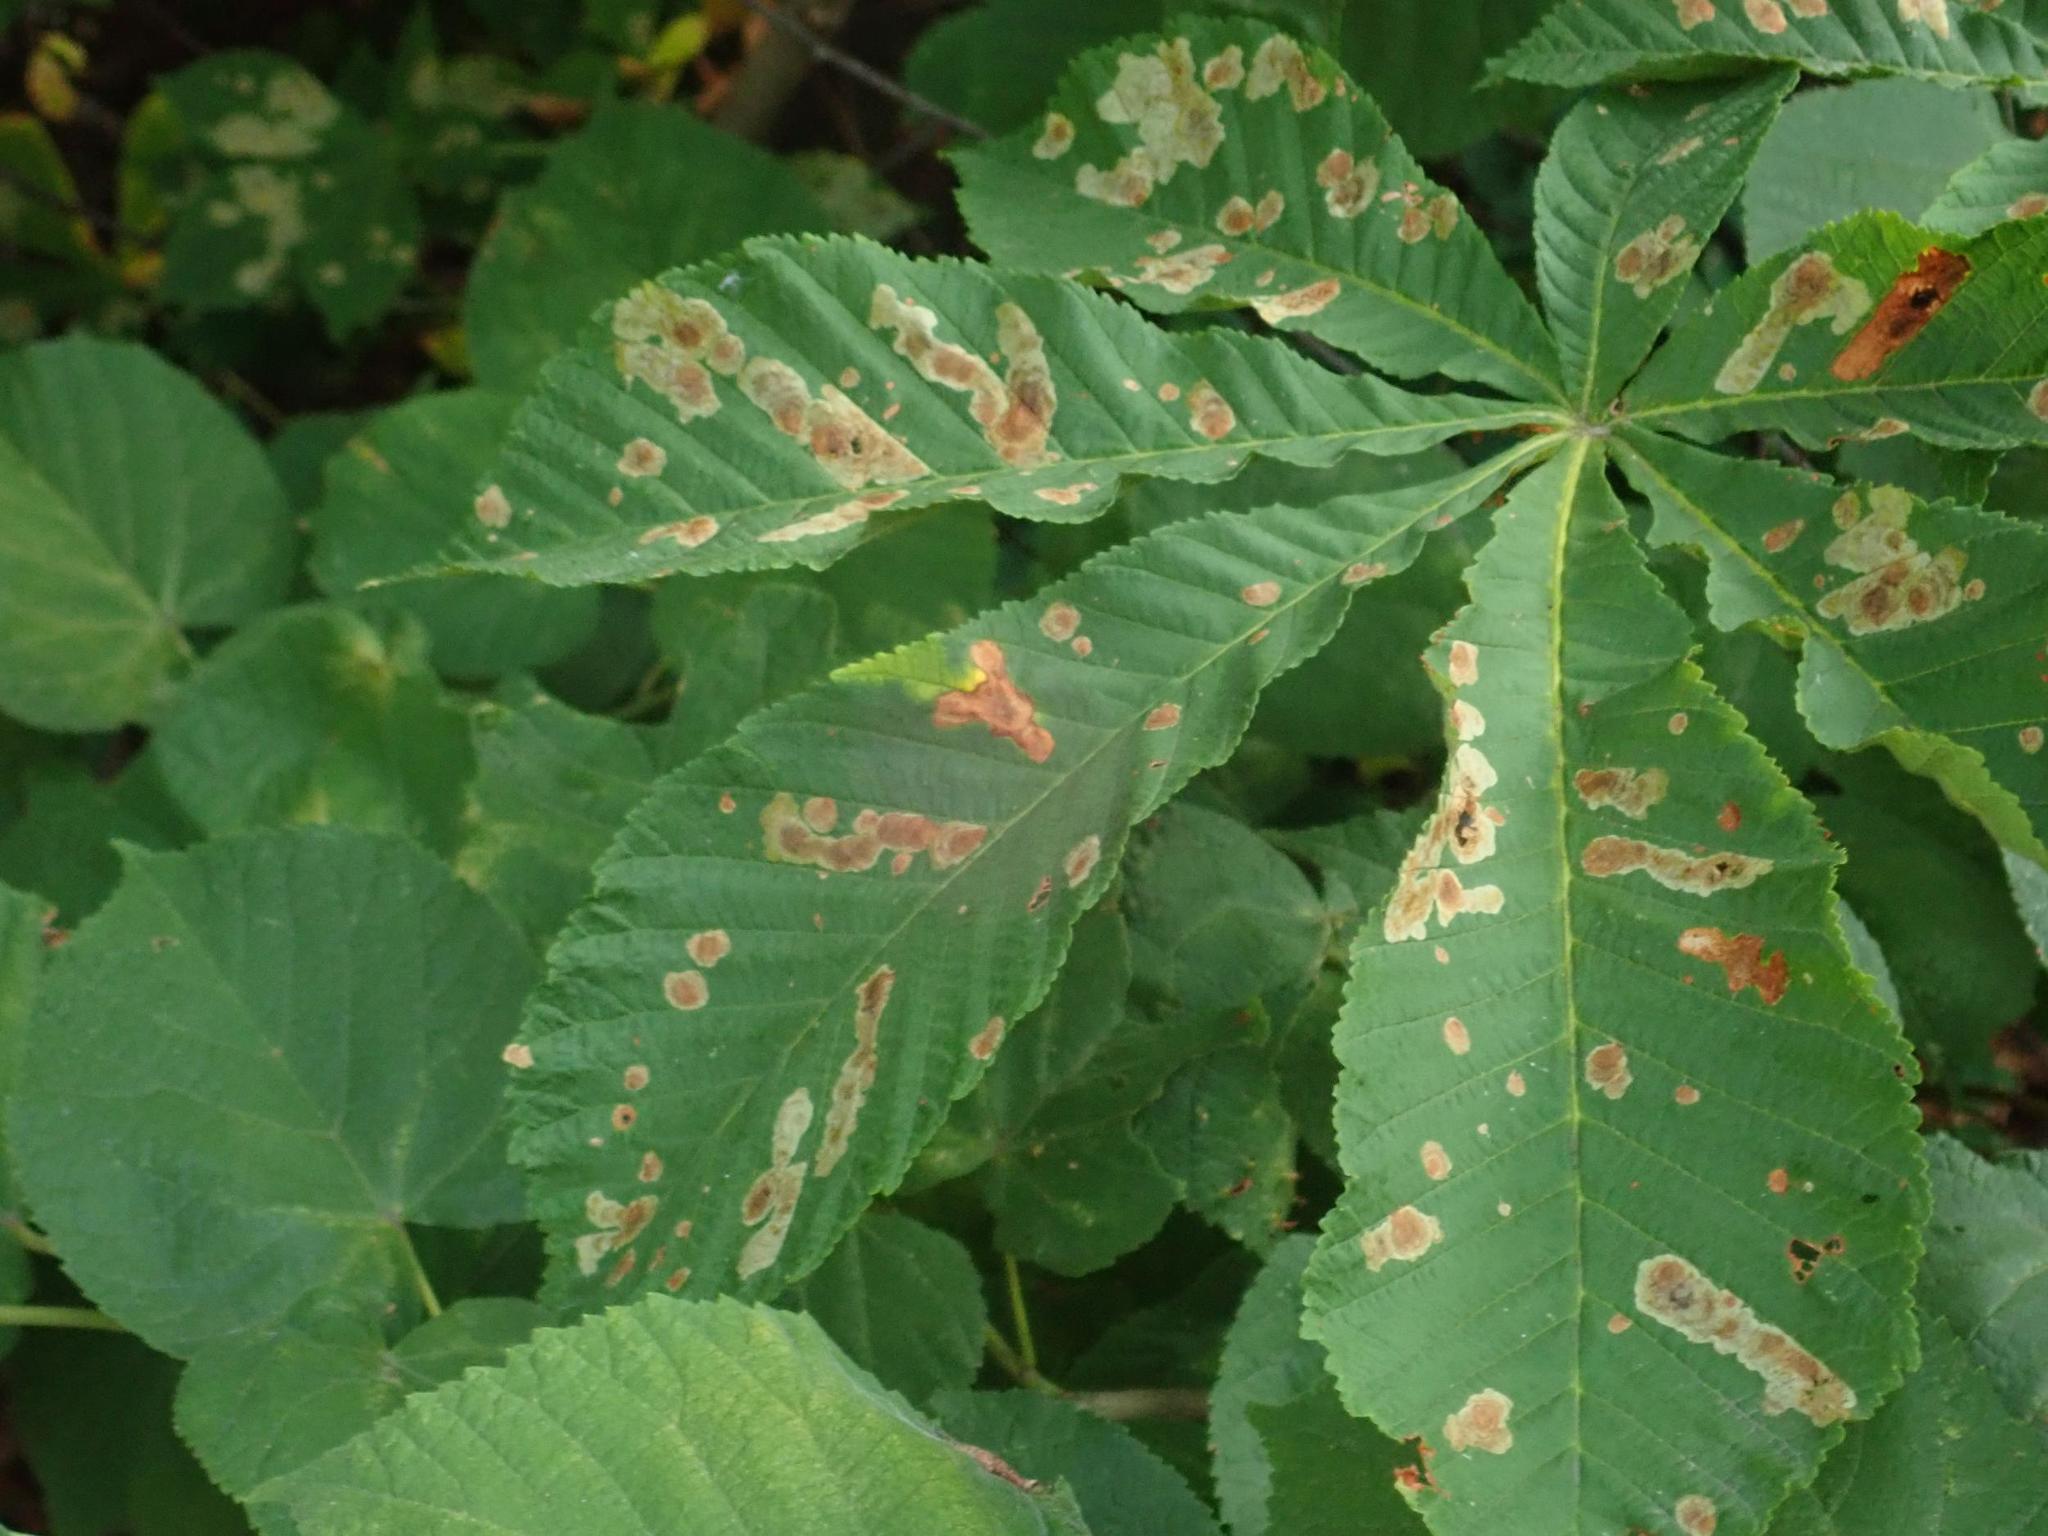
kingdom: Animalia
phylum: Arthropoda
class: Insecta
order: Lepidoptera
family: Gracillariidae
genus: Cameraria
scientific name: Cameraria ohridella
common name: Horse-chestnut leaf-miner
